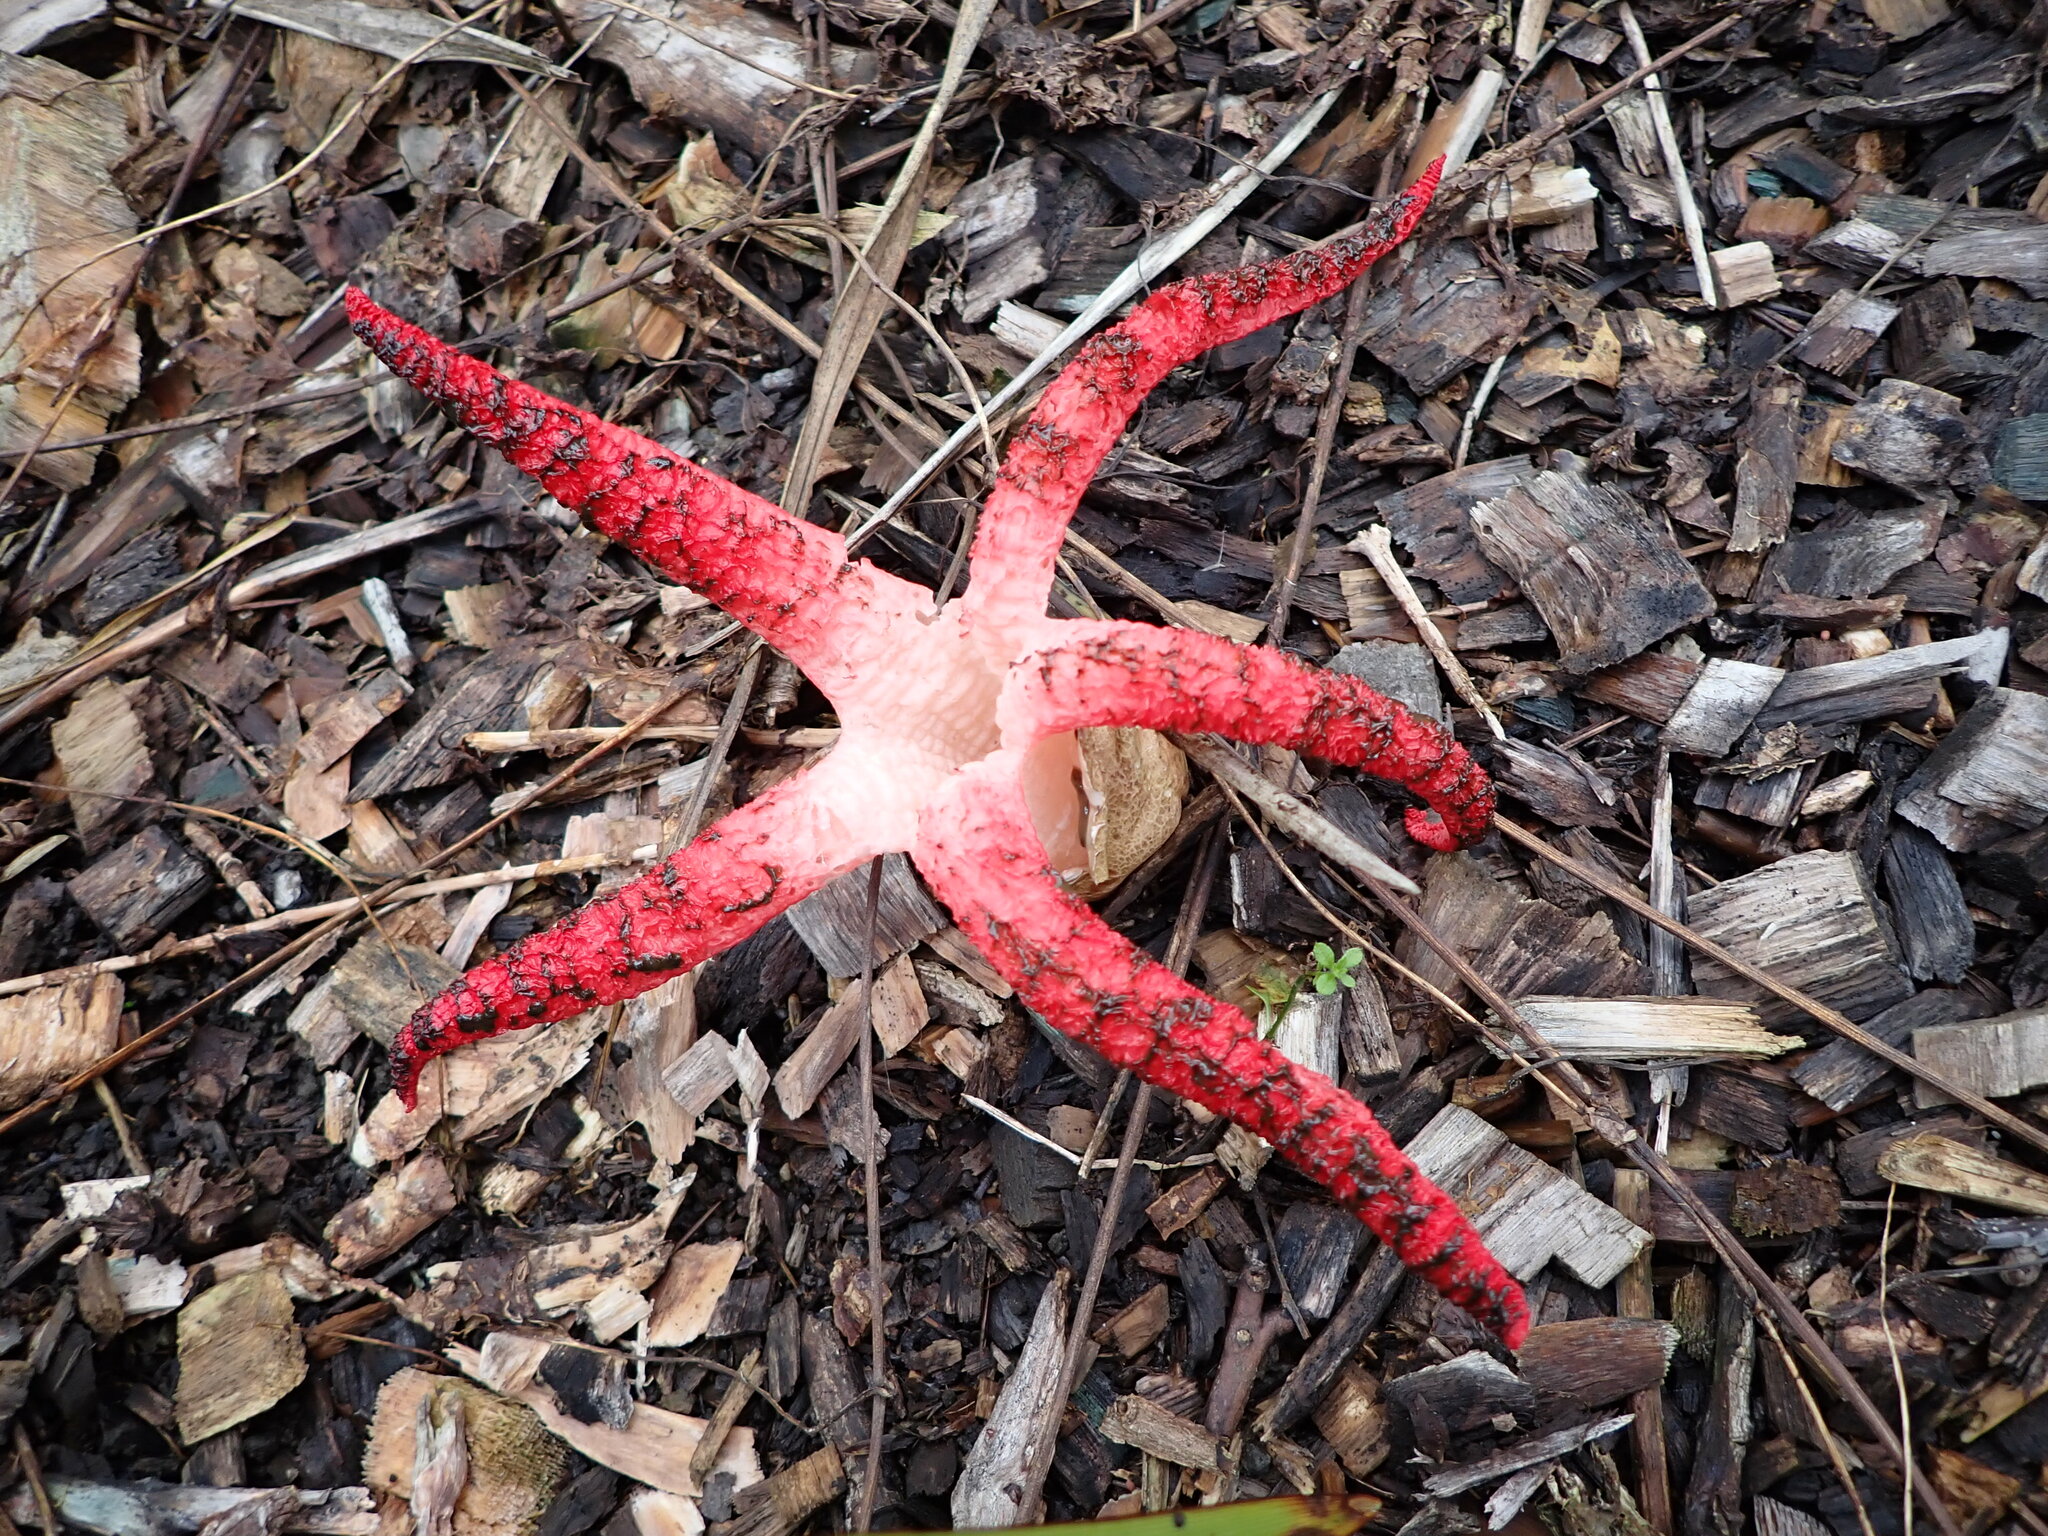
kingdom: Fungi
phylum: Basidiomycota
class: Agaricomycetes
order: Phallales
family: Phallaceae
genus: Clathrus
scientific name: Clathrus archeri
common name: Devil's fingers
